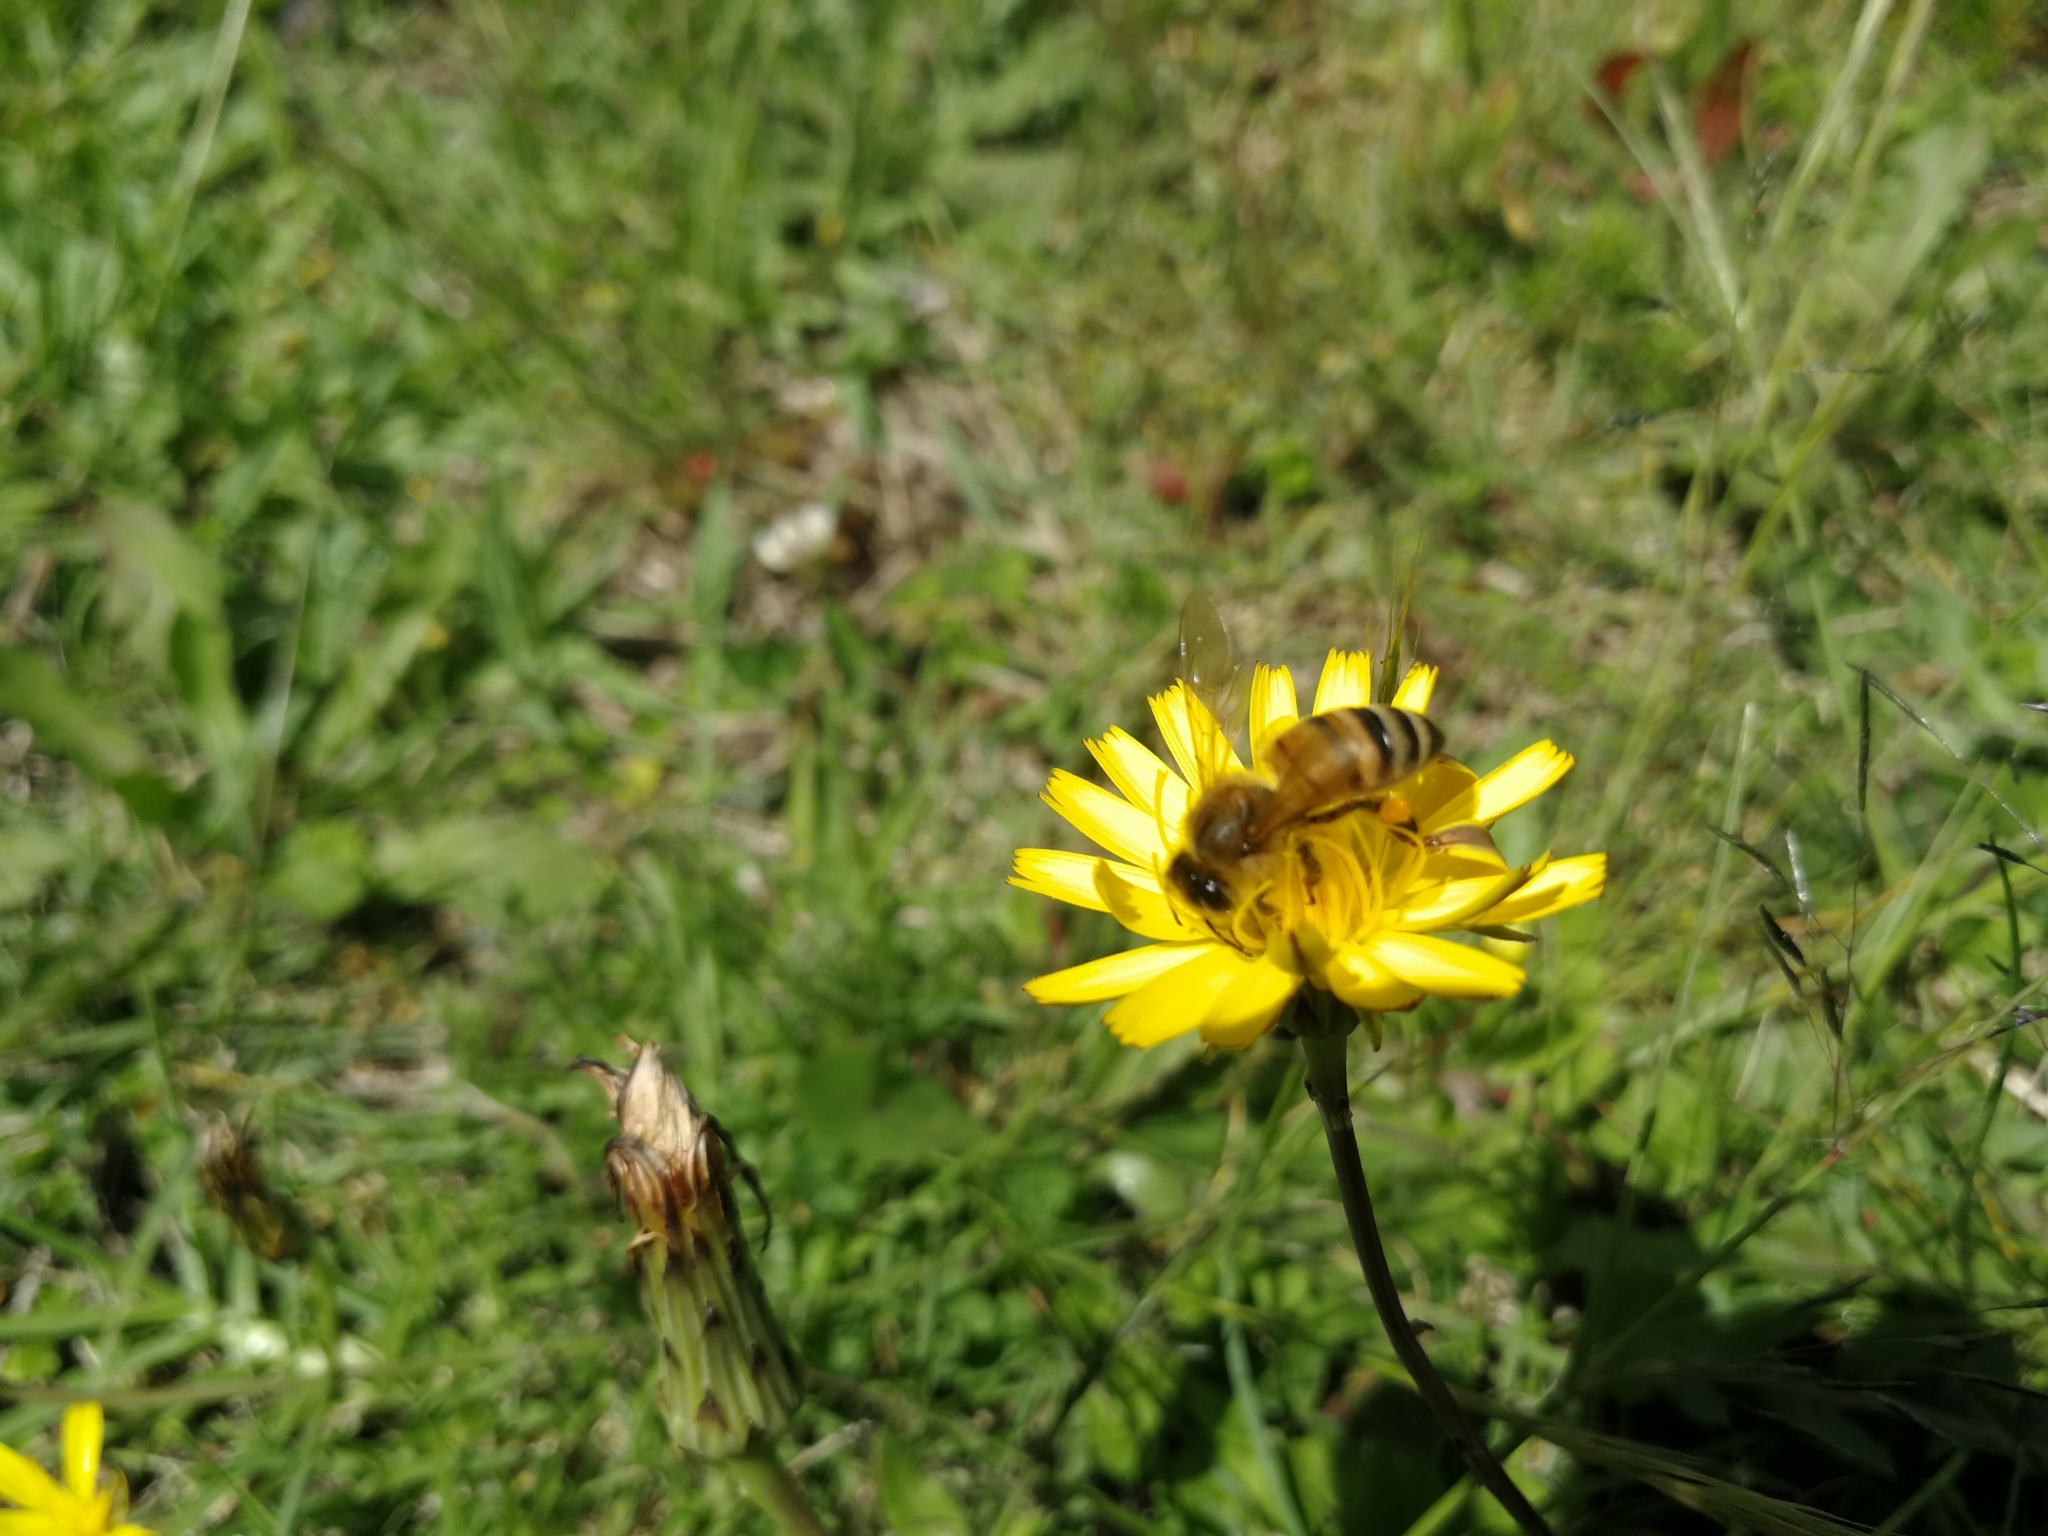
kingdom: Animalia
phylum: Arthropoda
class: Insecta
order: Hymenoptera
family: Apidae
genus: Apis
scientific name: Apis mellifera
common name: Honey bee
